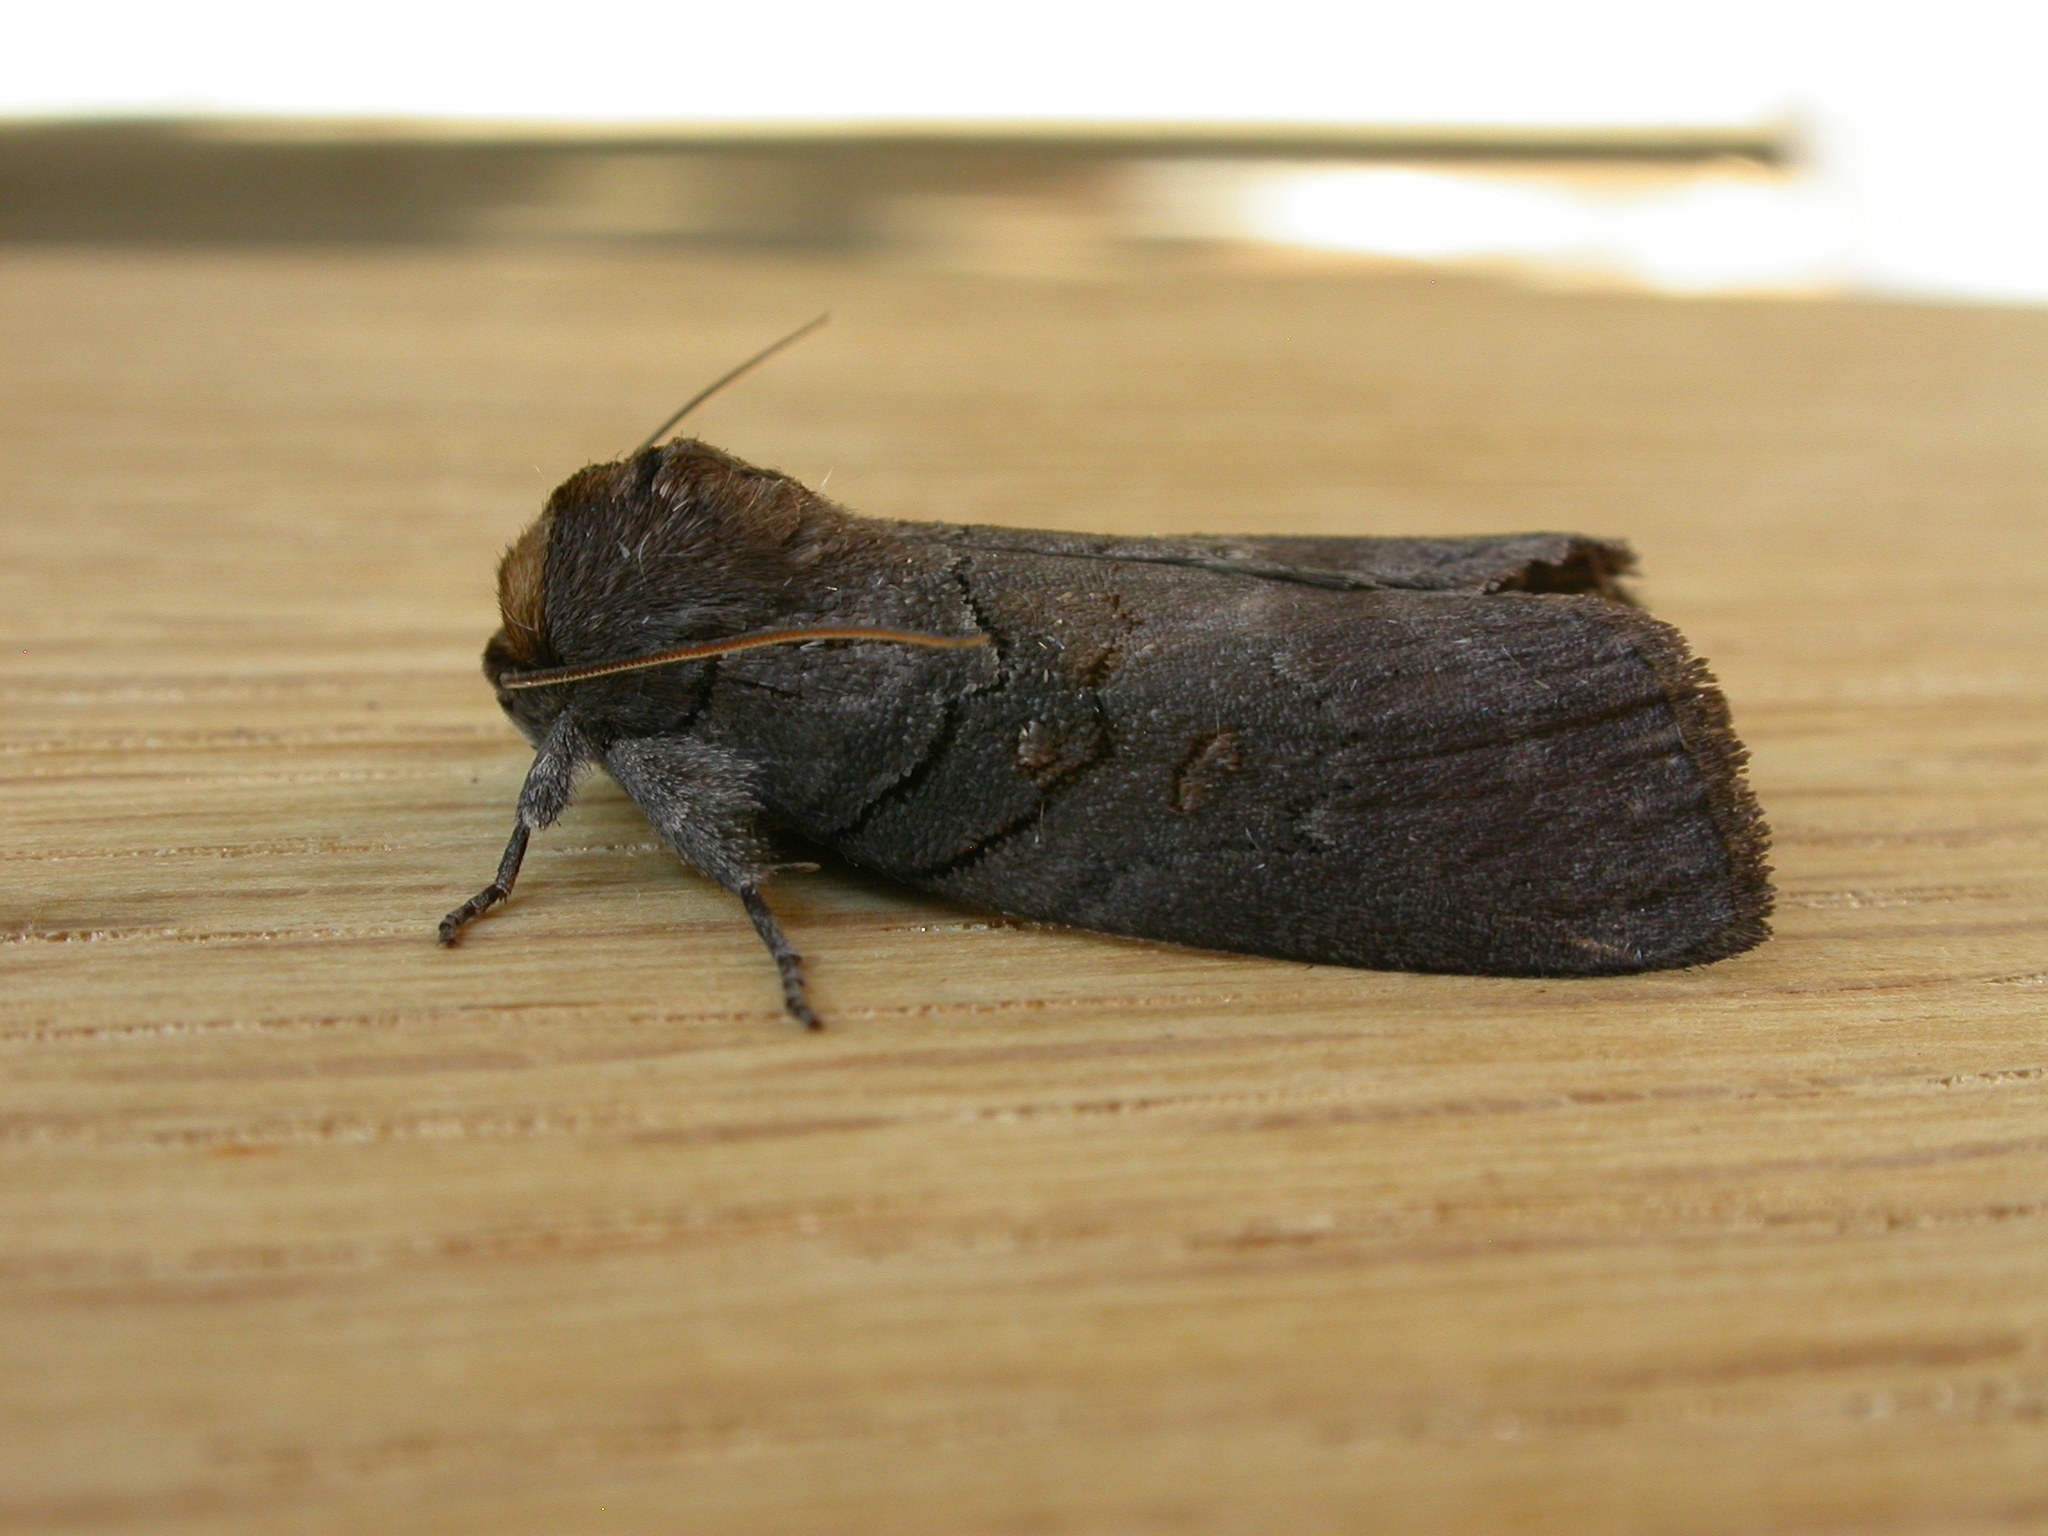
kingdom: Animalia
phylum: Arthropoda
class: Insecta
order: Lepidoptera
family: Oenosandridae
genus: Discophlebia
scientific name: Discophlebia lucasii
